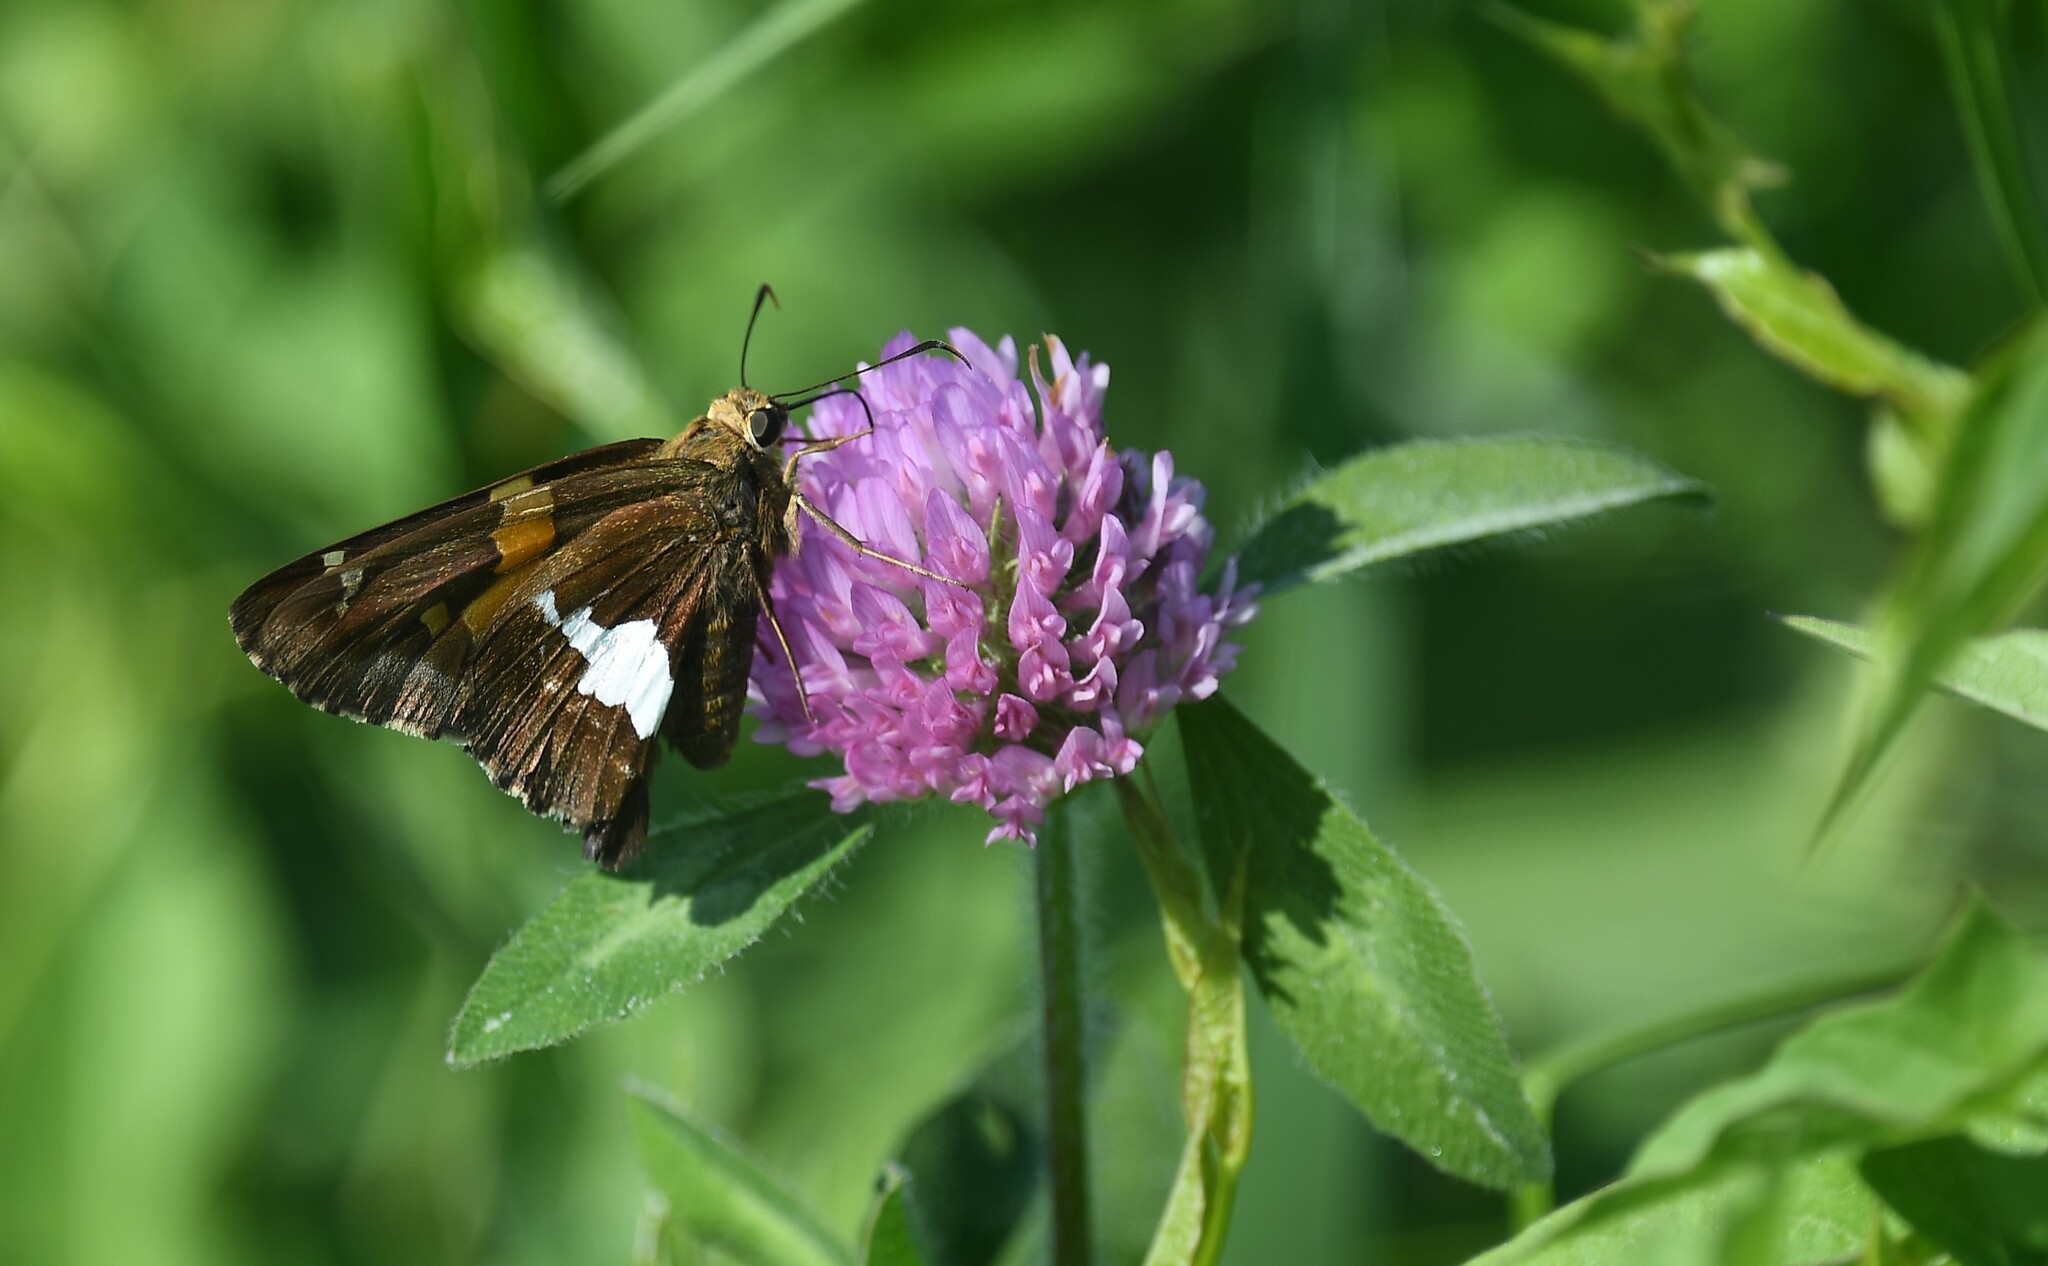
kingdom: Animalia
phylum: Arthropoda
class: Insecta
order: Lepidoptera
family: Hesperiidae
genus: Epargyreus
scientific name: Epargyreus clarus
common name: Silver-spotted skipper
